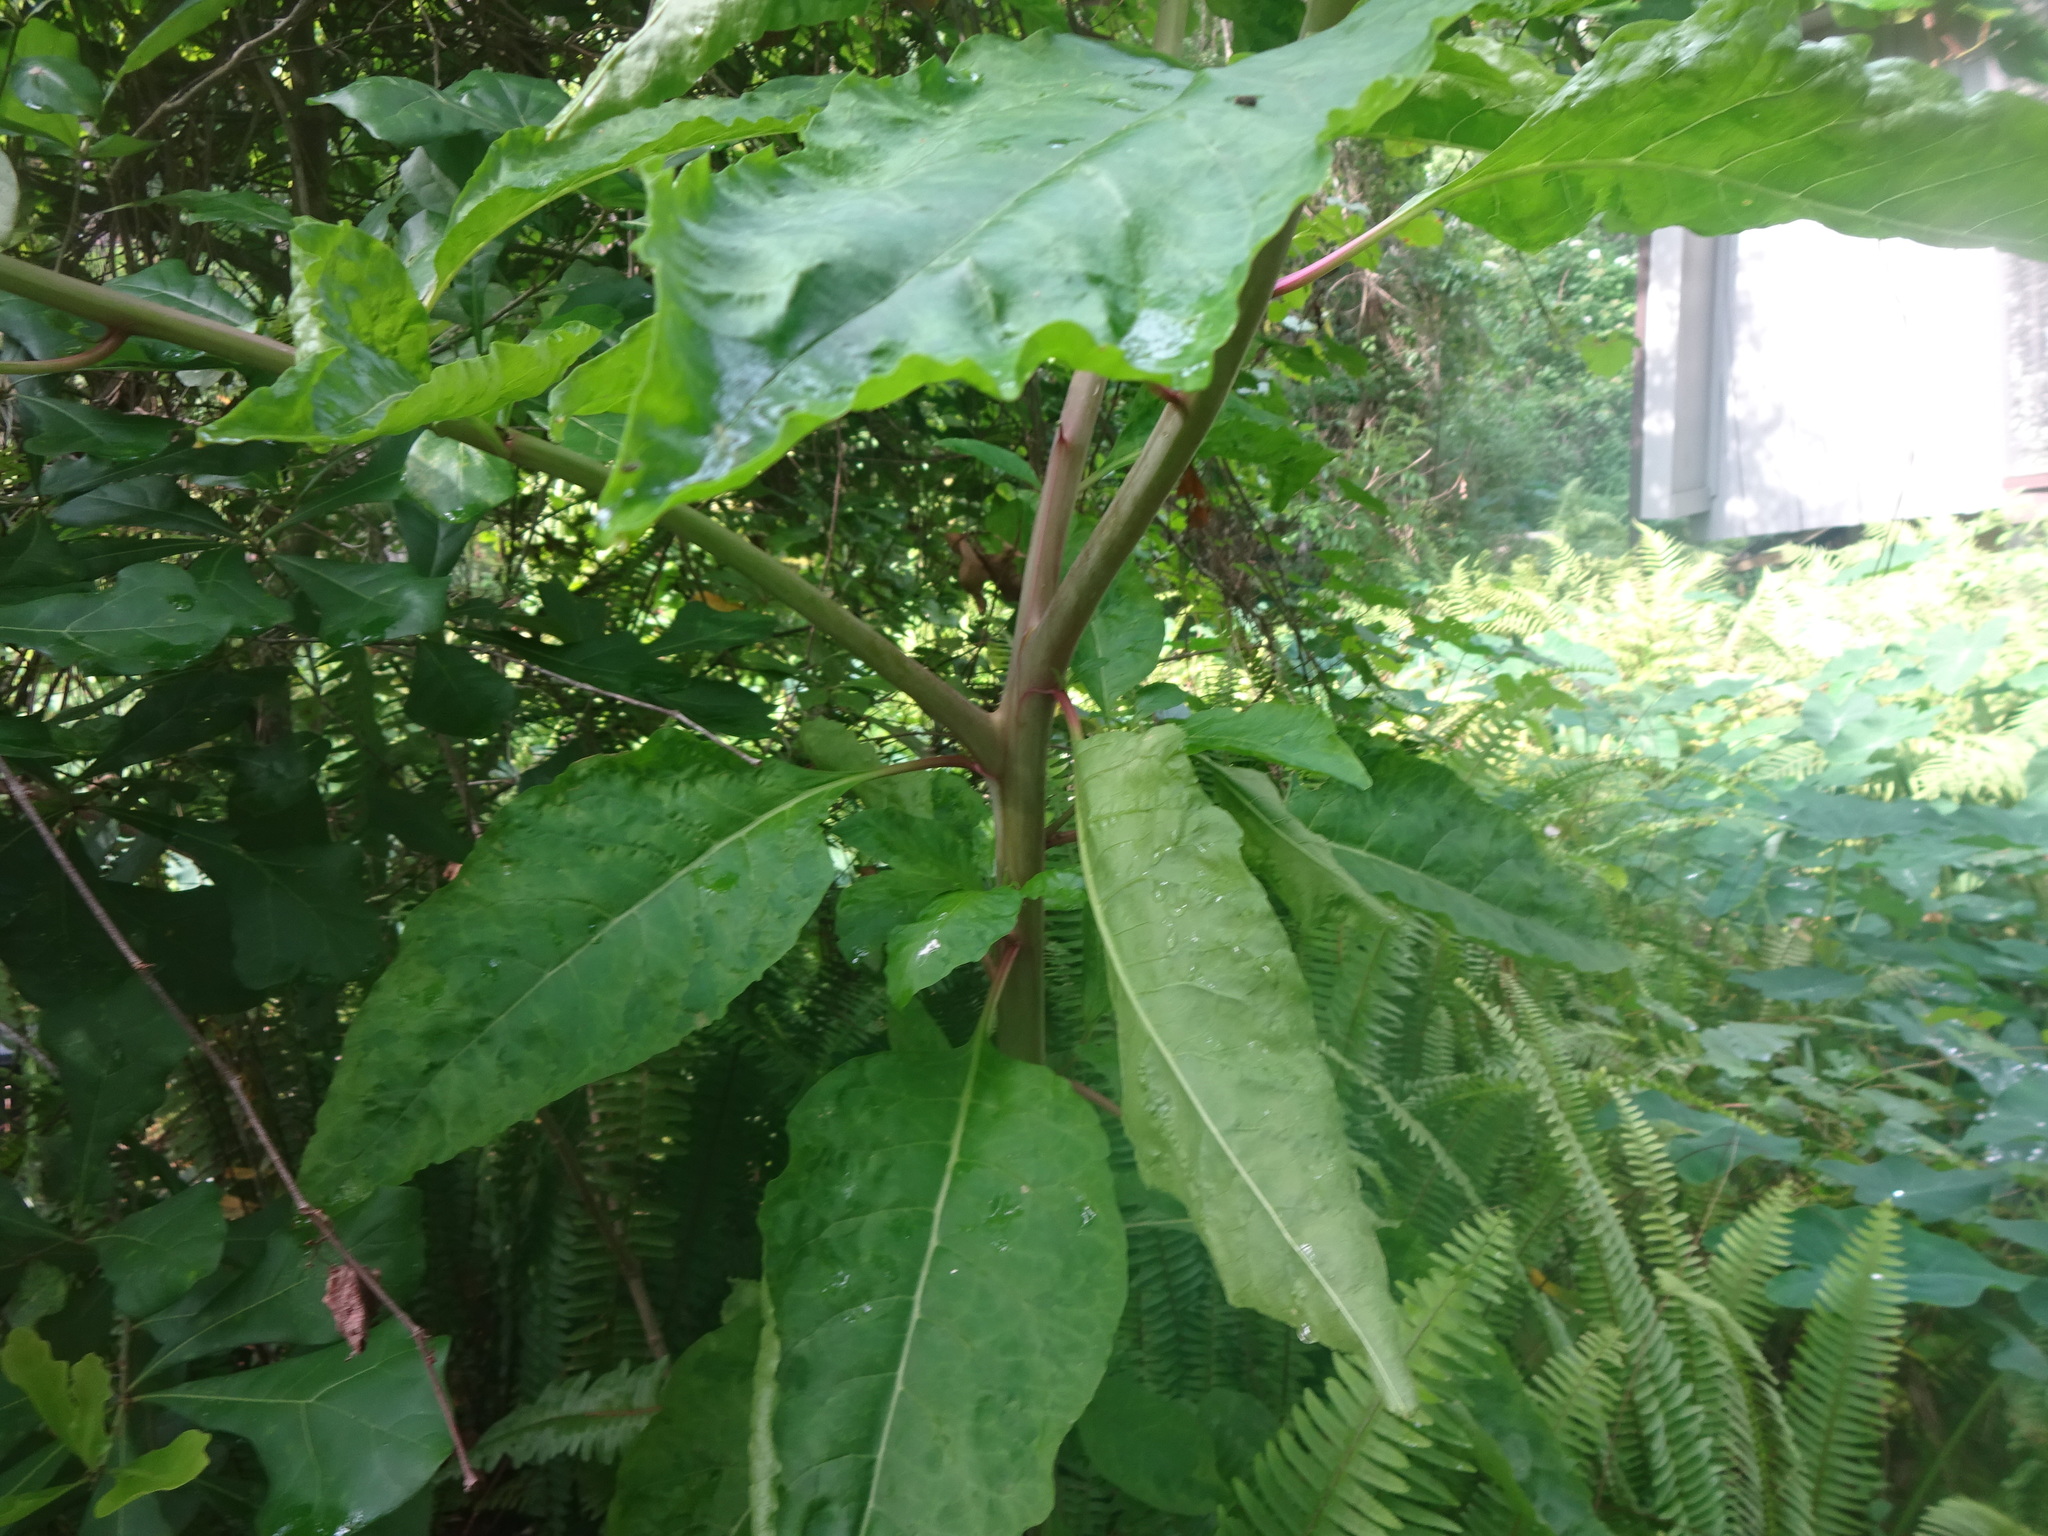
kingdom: Plantae
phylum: Tracheophyta
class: Magnoliopsida
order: Caryophyllales
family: Phytolaccaceae
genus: Phytolacca
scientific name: Phytolacca americana
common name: American pokeweed
